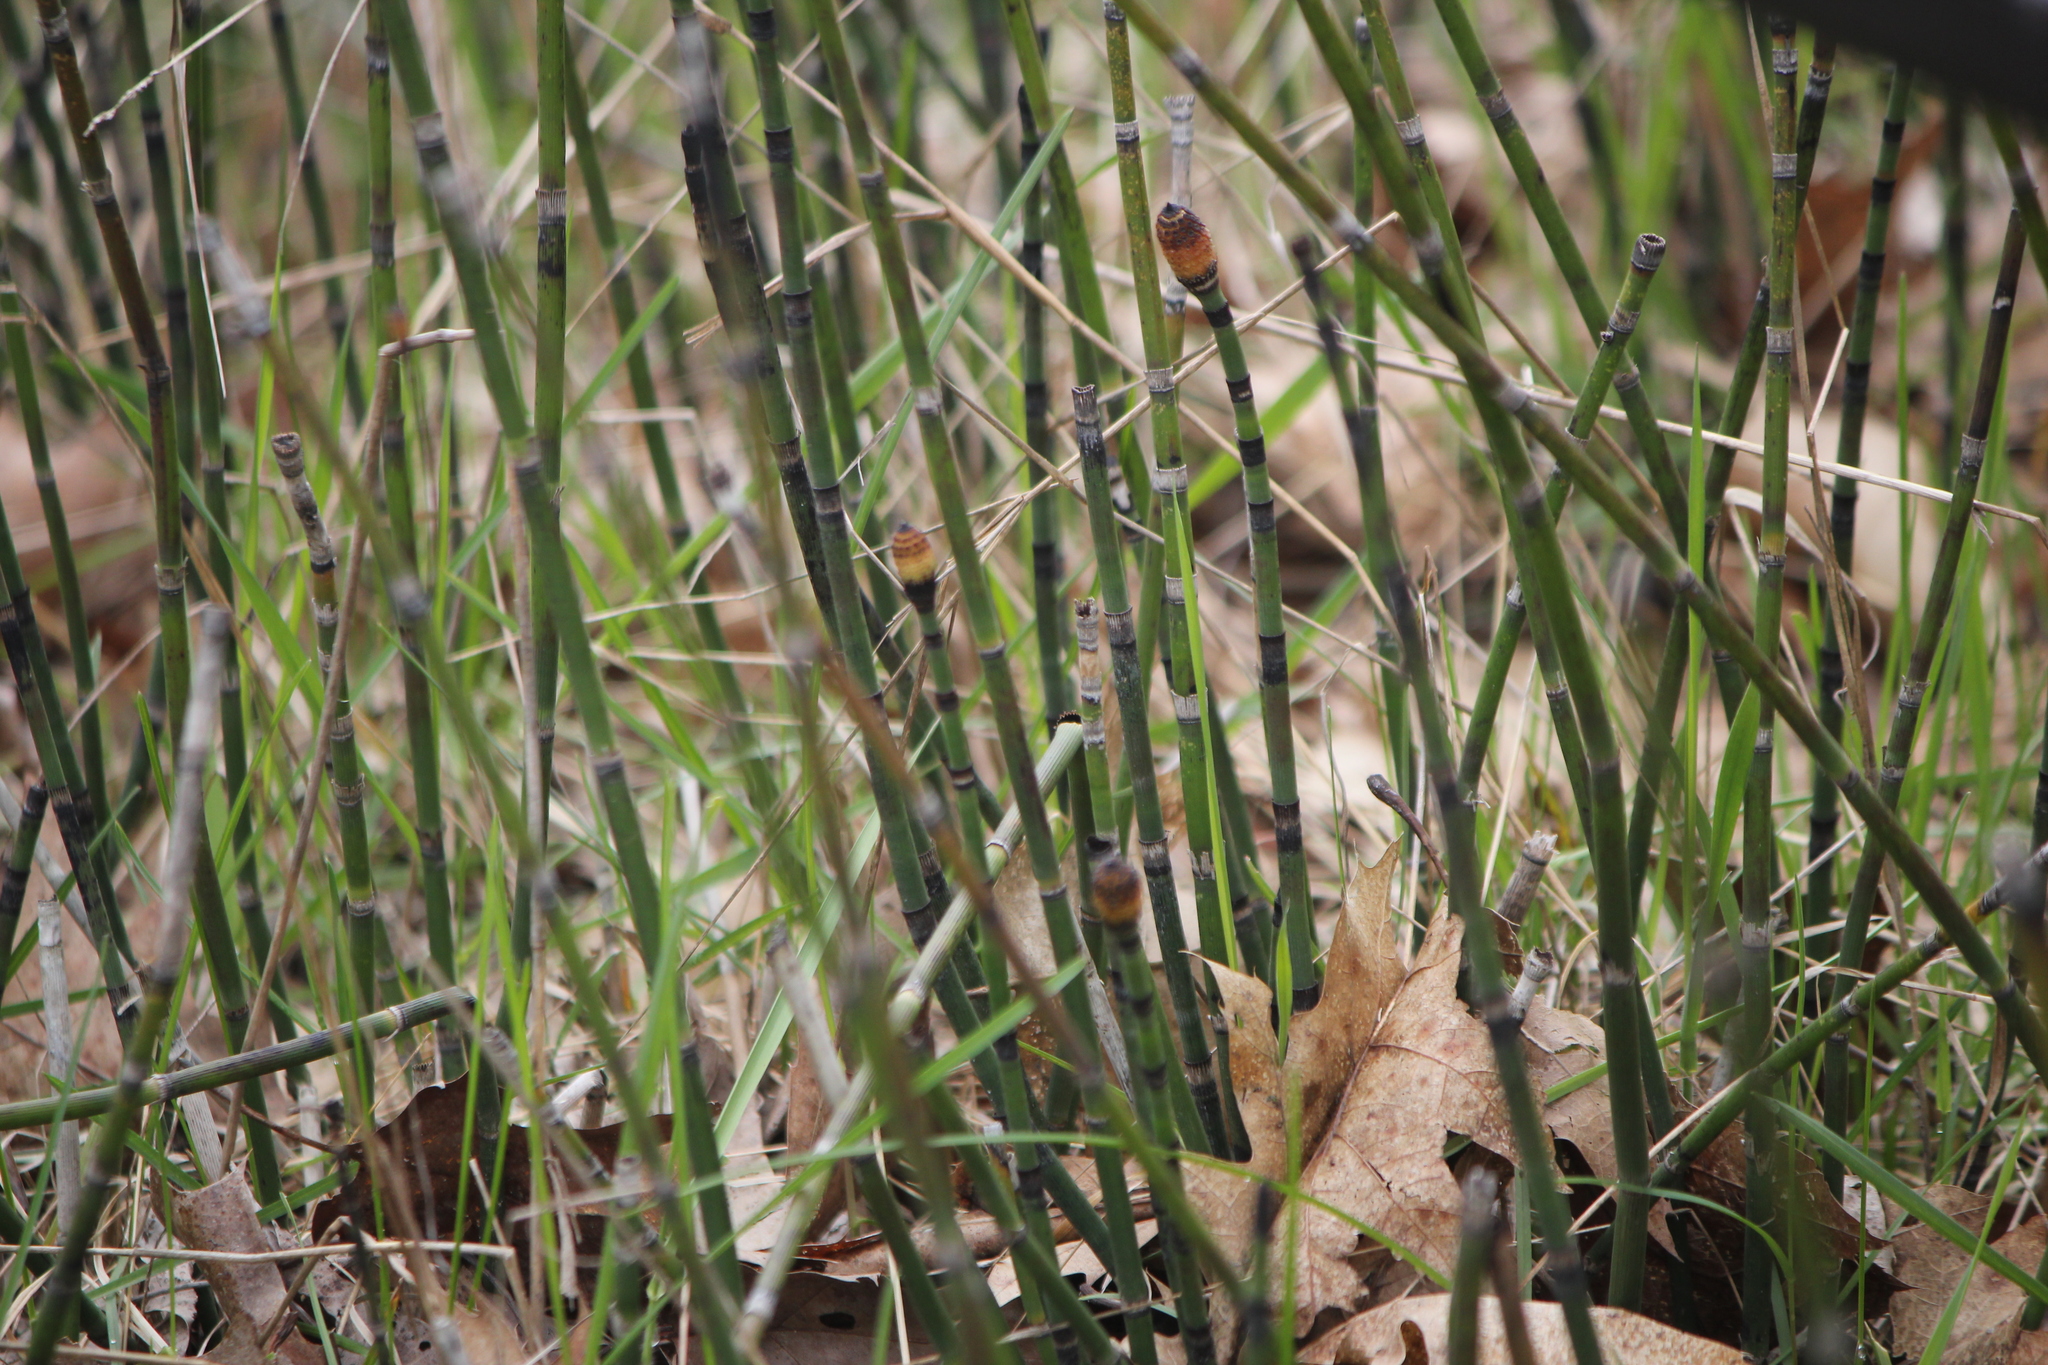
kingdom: Plantae
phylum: Tracheophyta
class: Polypodiopsida
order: Equisetales
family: Equisetaceae
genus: Equisetum
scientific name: Equisetum hyemale
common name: Rough horsetail
